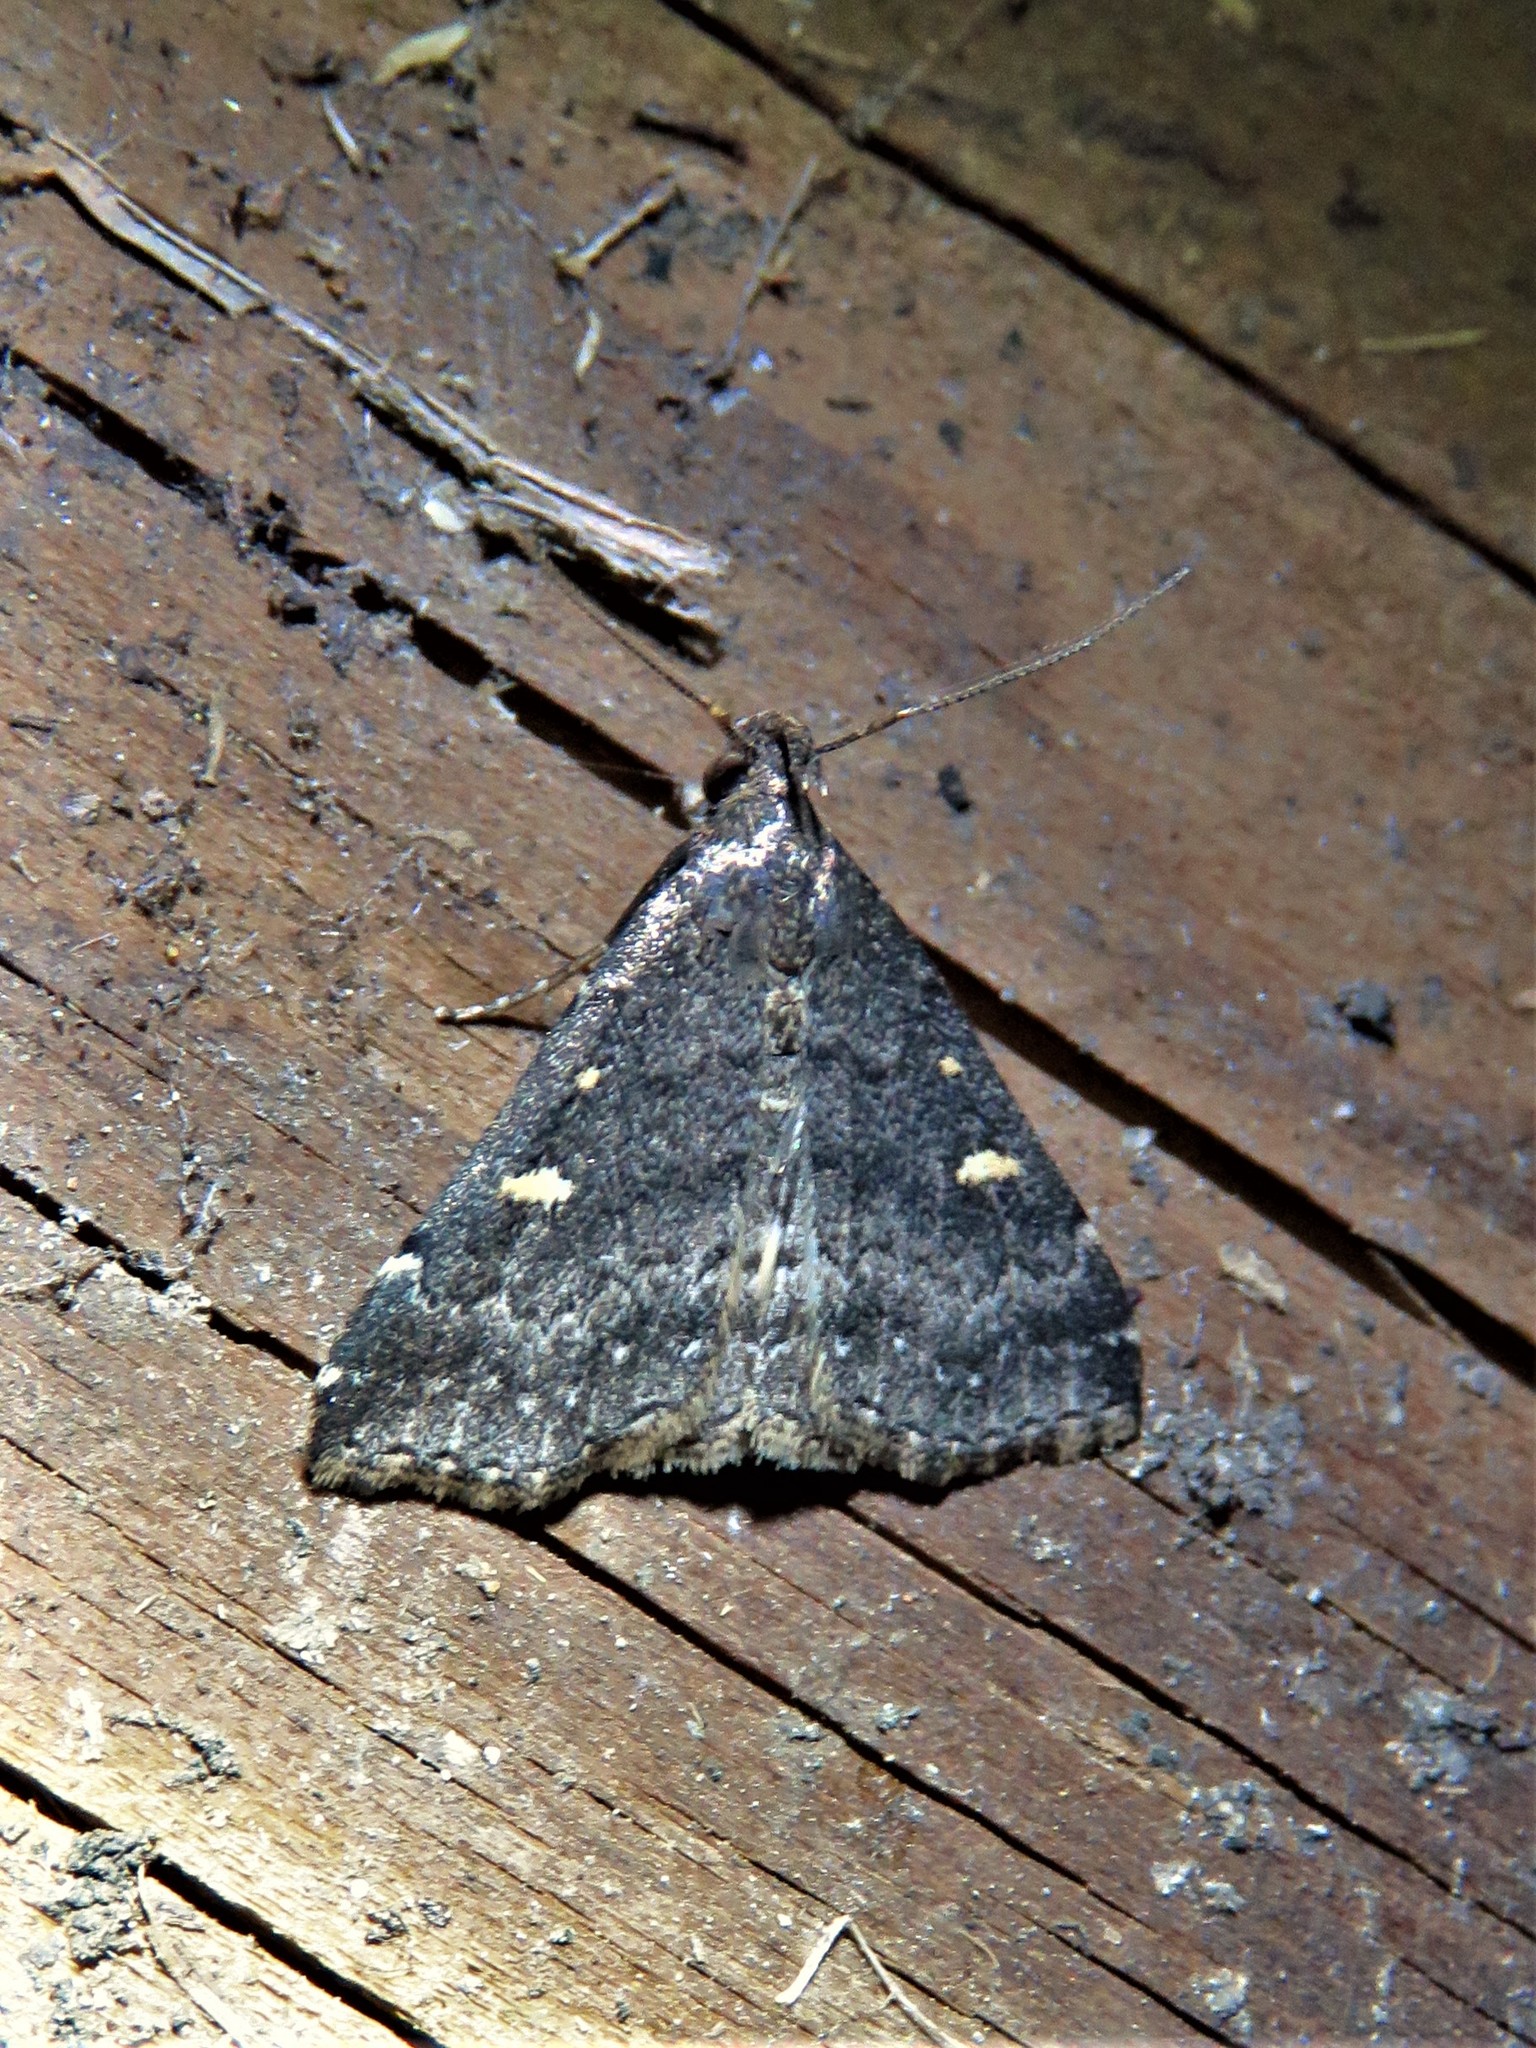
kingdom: Animalia
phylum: Arthropoda
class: Insecta
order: Lepidoptera
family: Erebidae
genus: Tetanolita
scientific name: Tetanolita mynesalis
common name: Smoky tetanolita moth
